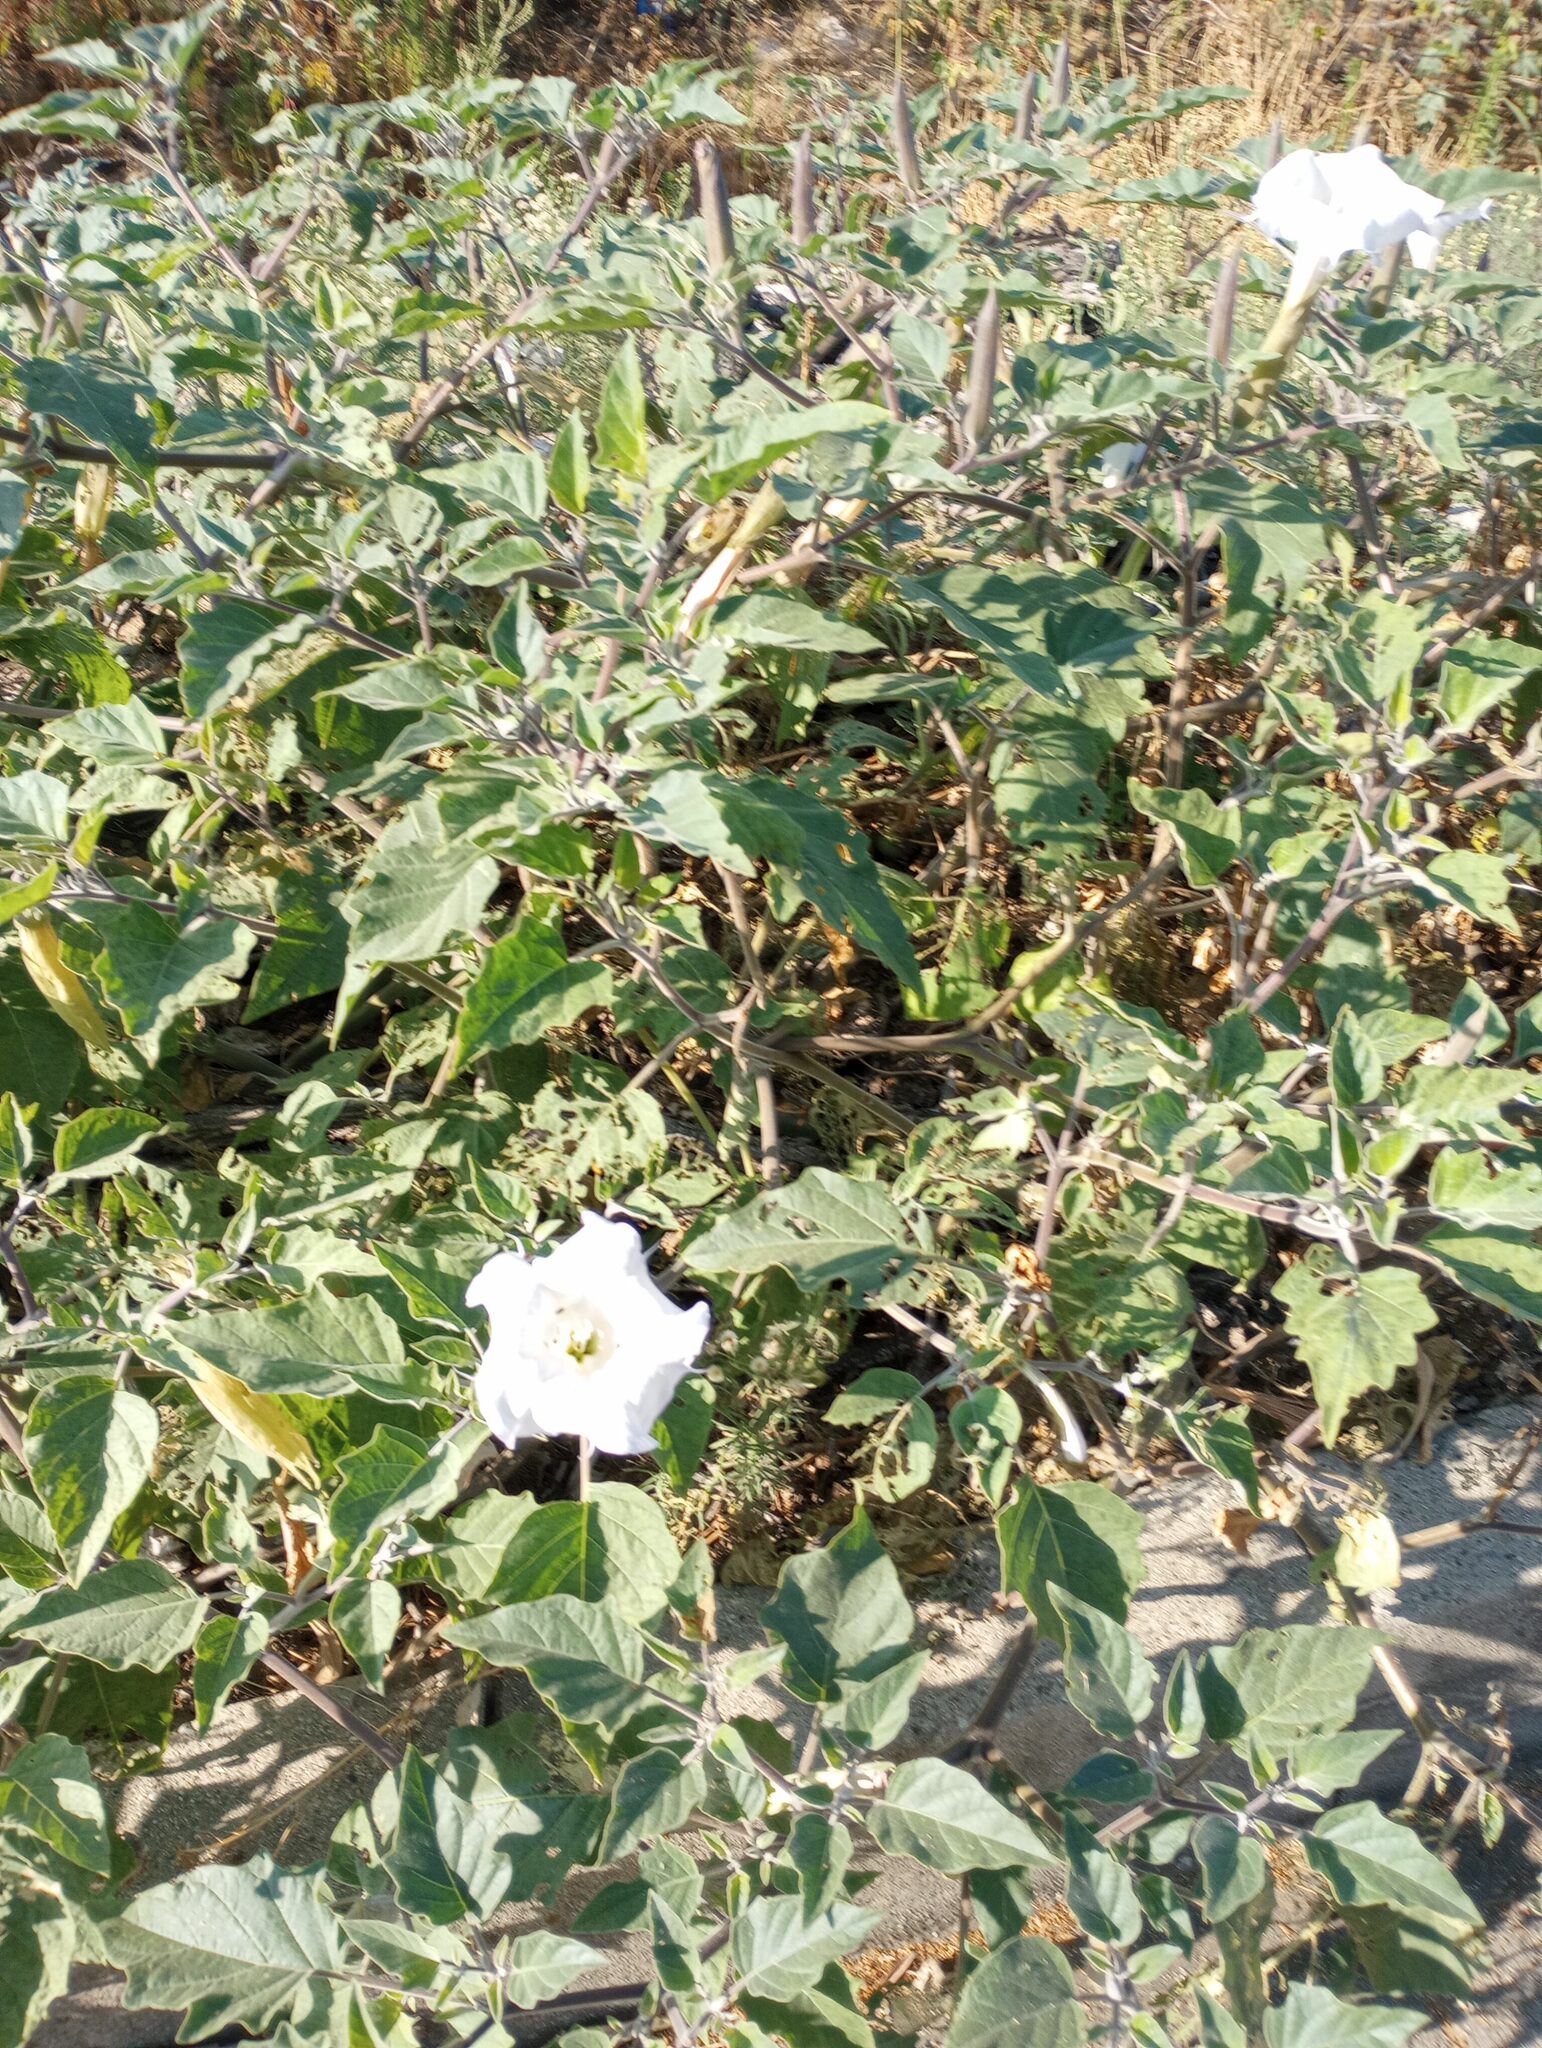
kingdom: Plantae
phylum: Tracheophyta
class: Magnoliopsida
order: Solanales
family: Solanaceae
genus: Datura
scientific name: Datura wrightii
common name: Sacred thorn-apple
